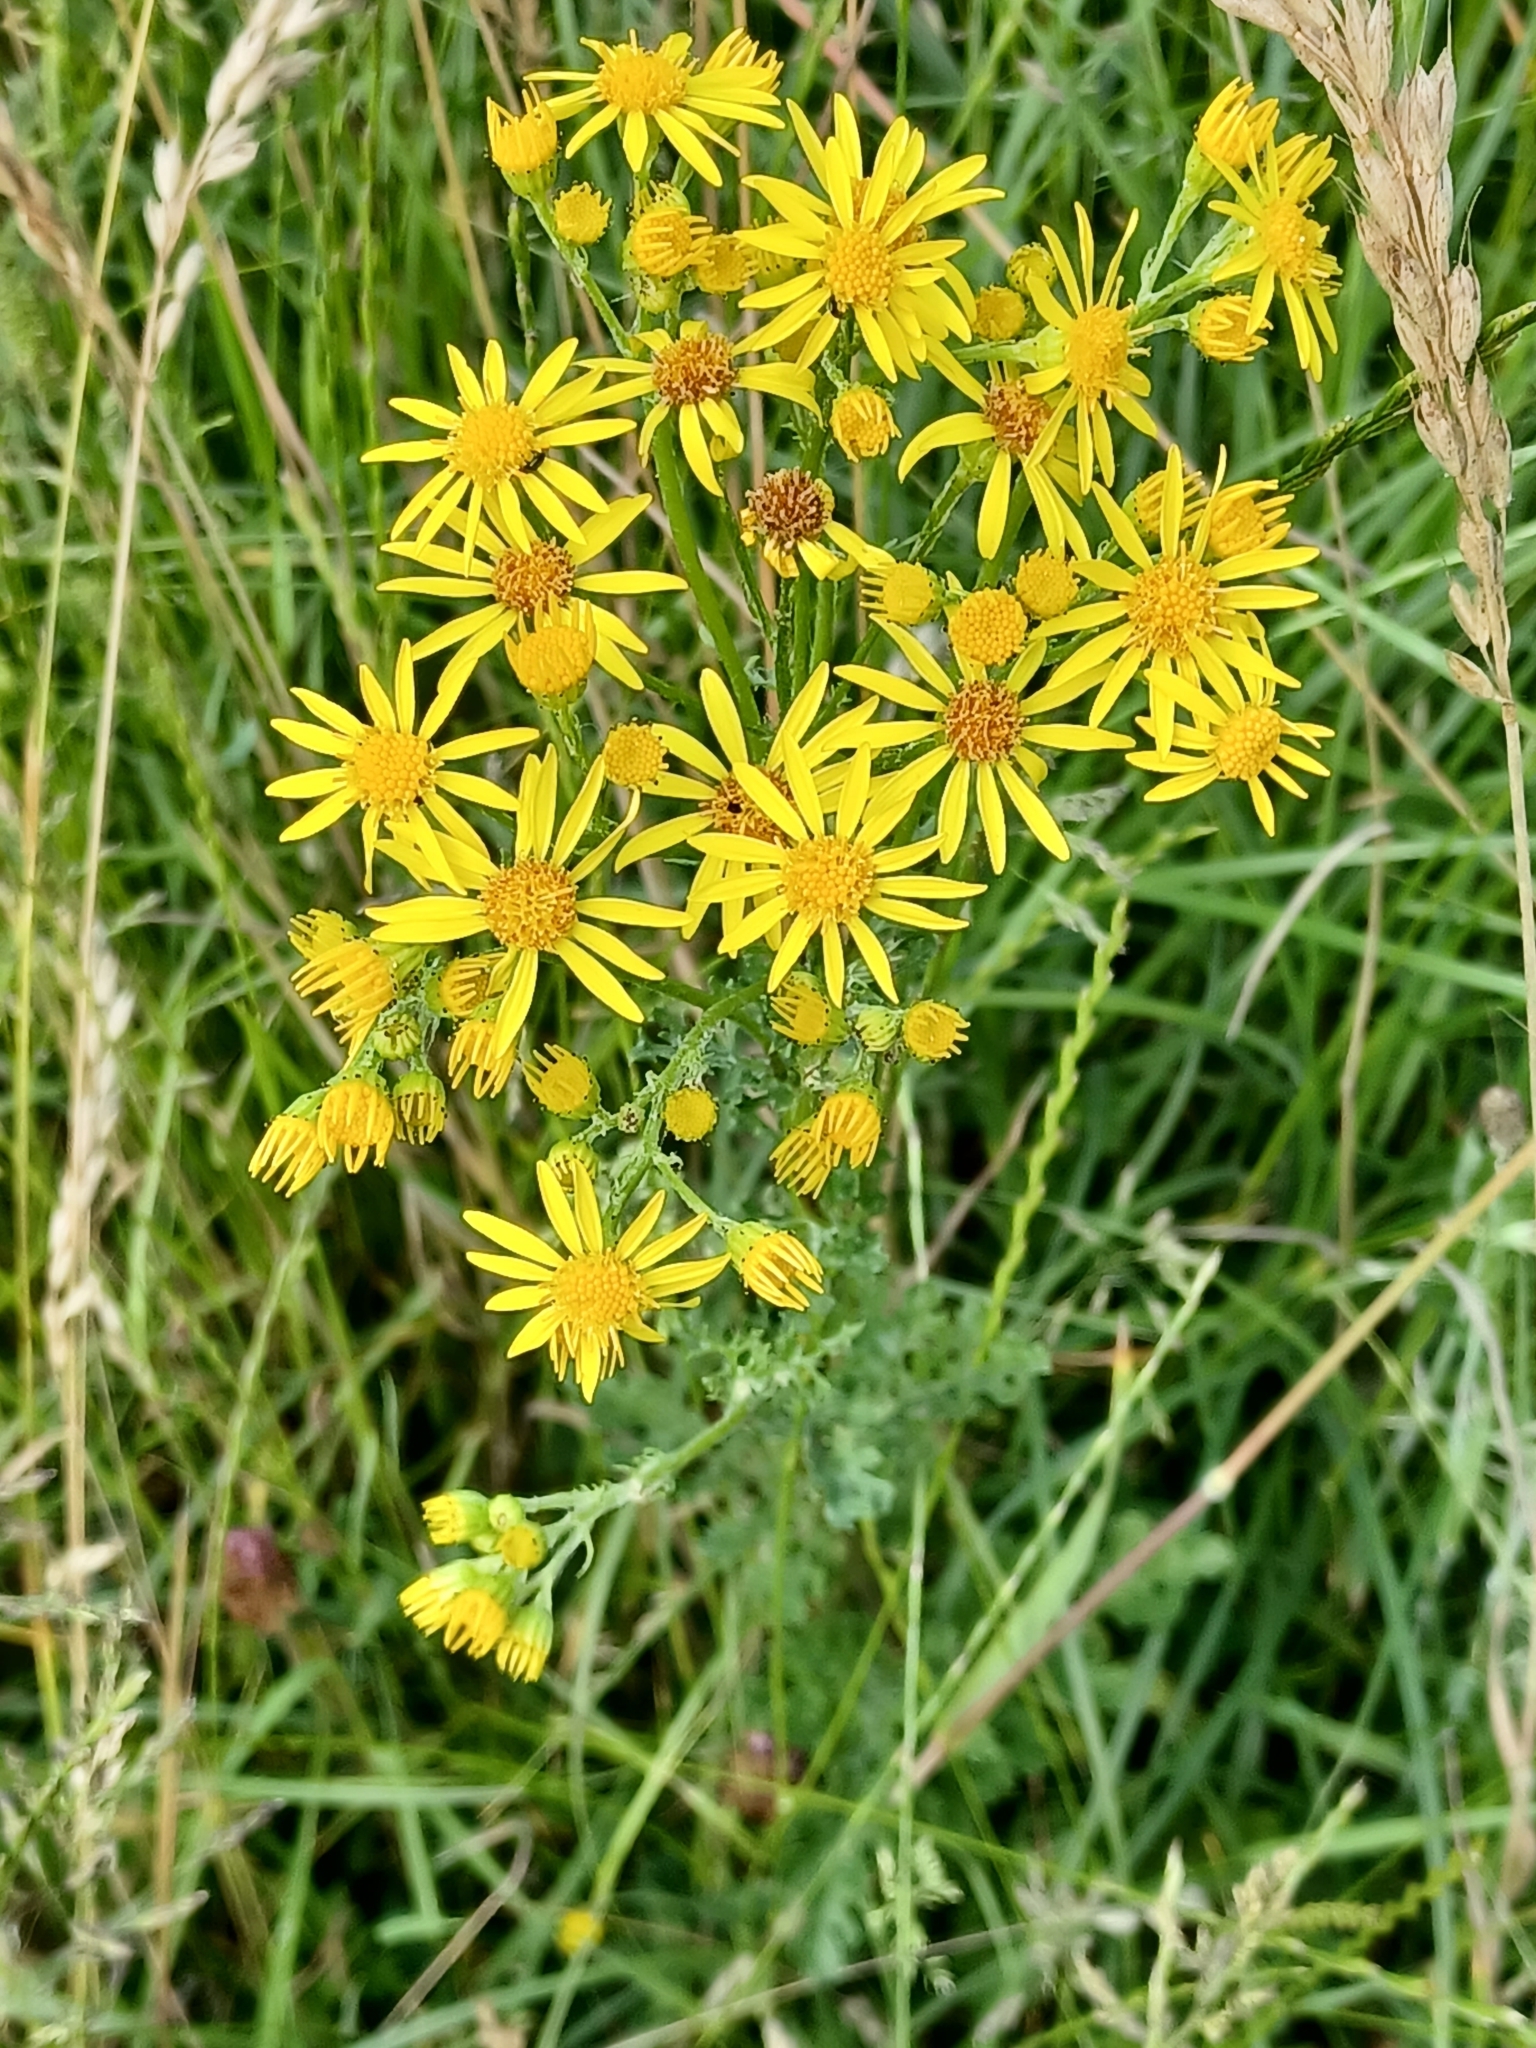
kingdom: Plantae
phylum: Tracheophyta
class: Magnoliopsida
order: Asterales
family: Asteraceae
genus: Jacobaea
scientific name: Jacobaea vulgaris
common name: Stinking willie
